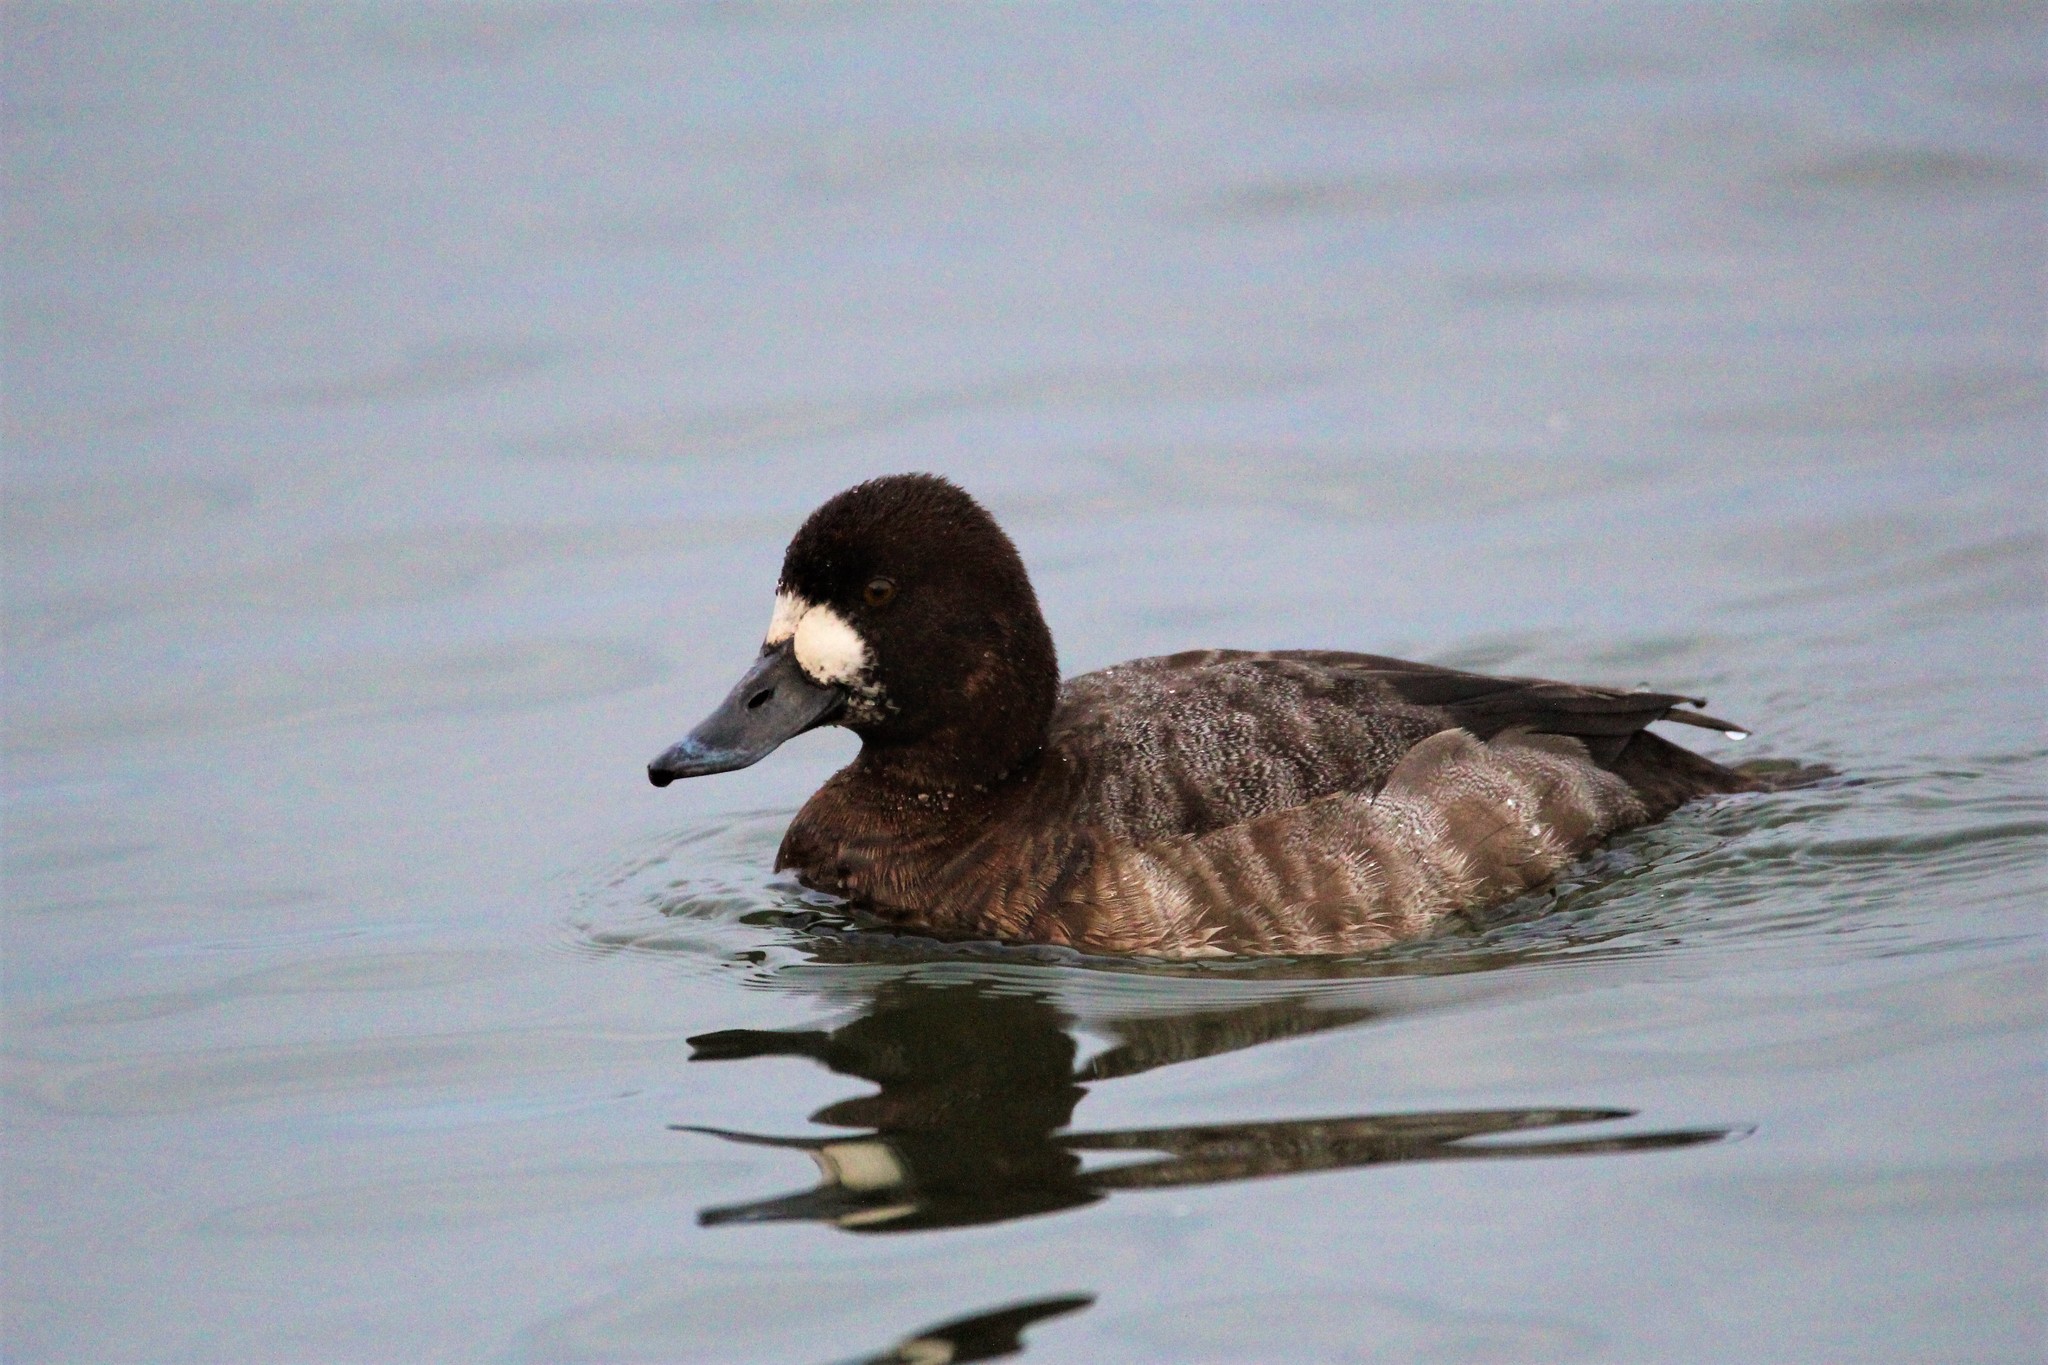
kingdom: Animalia
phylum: Chordata
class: Aves
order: Anseriformes
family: Anatidae
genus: Aythya
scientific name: Aythya marila
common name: Greater scaup
